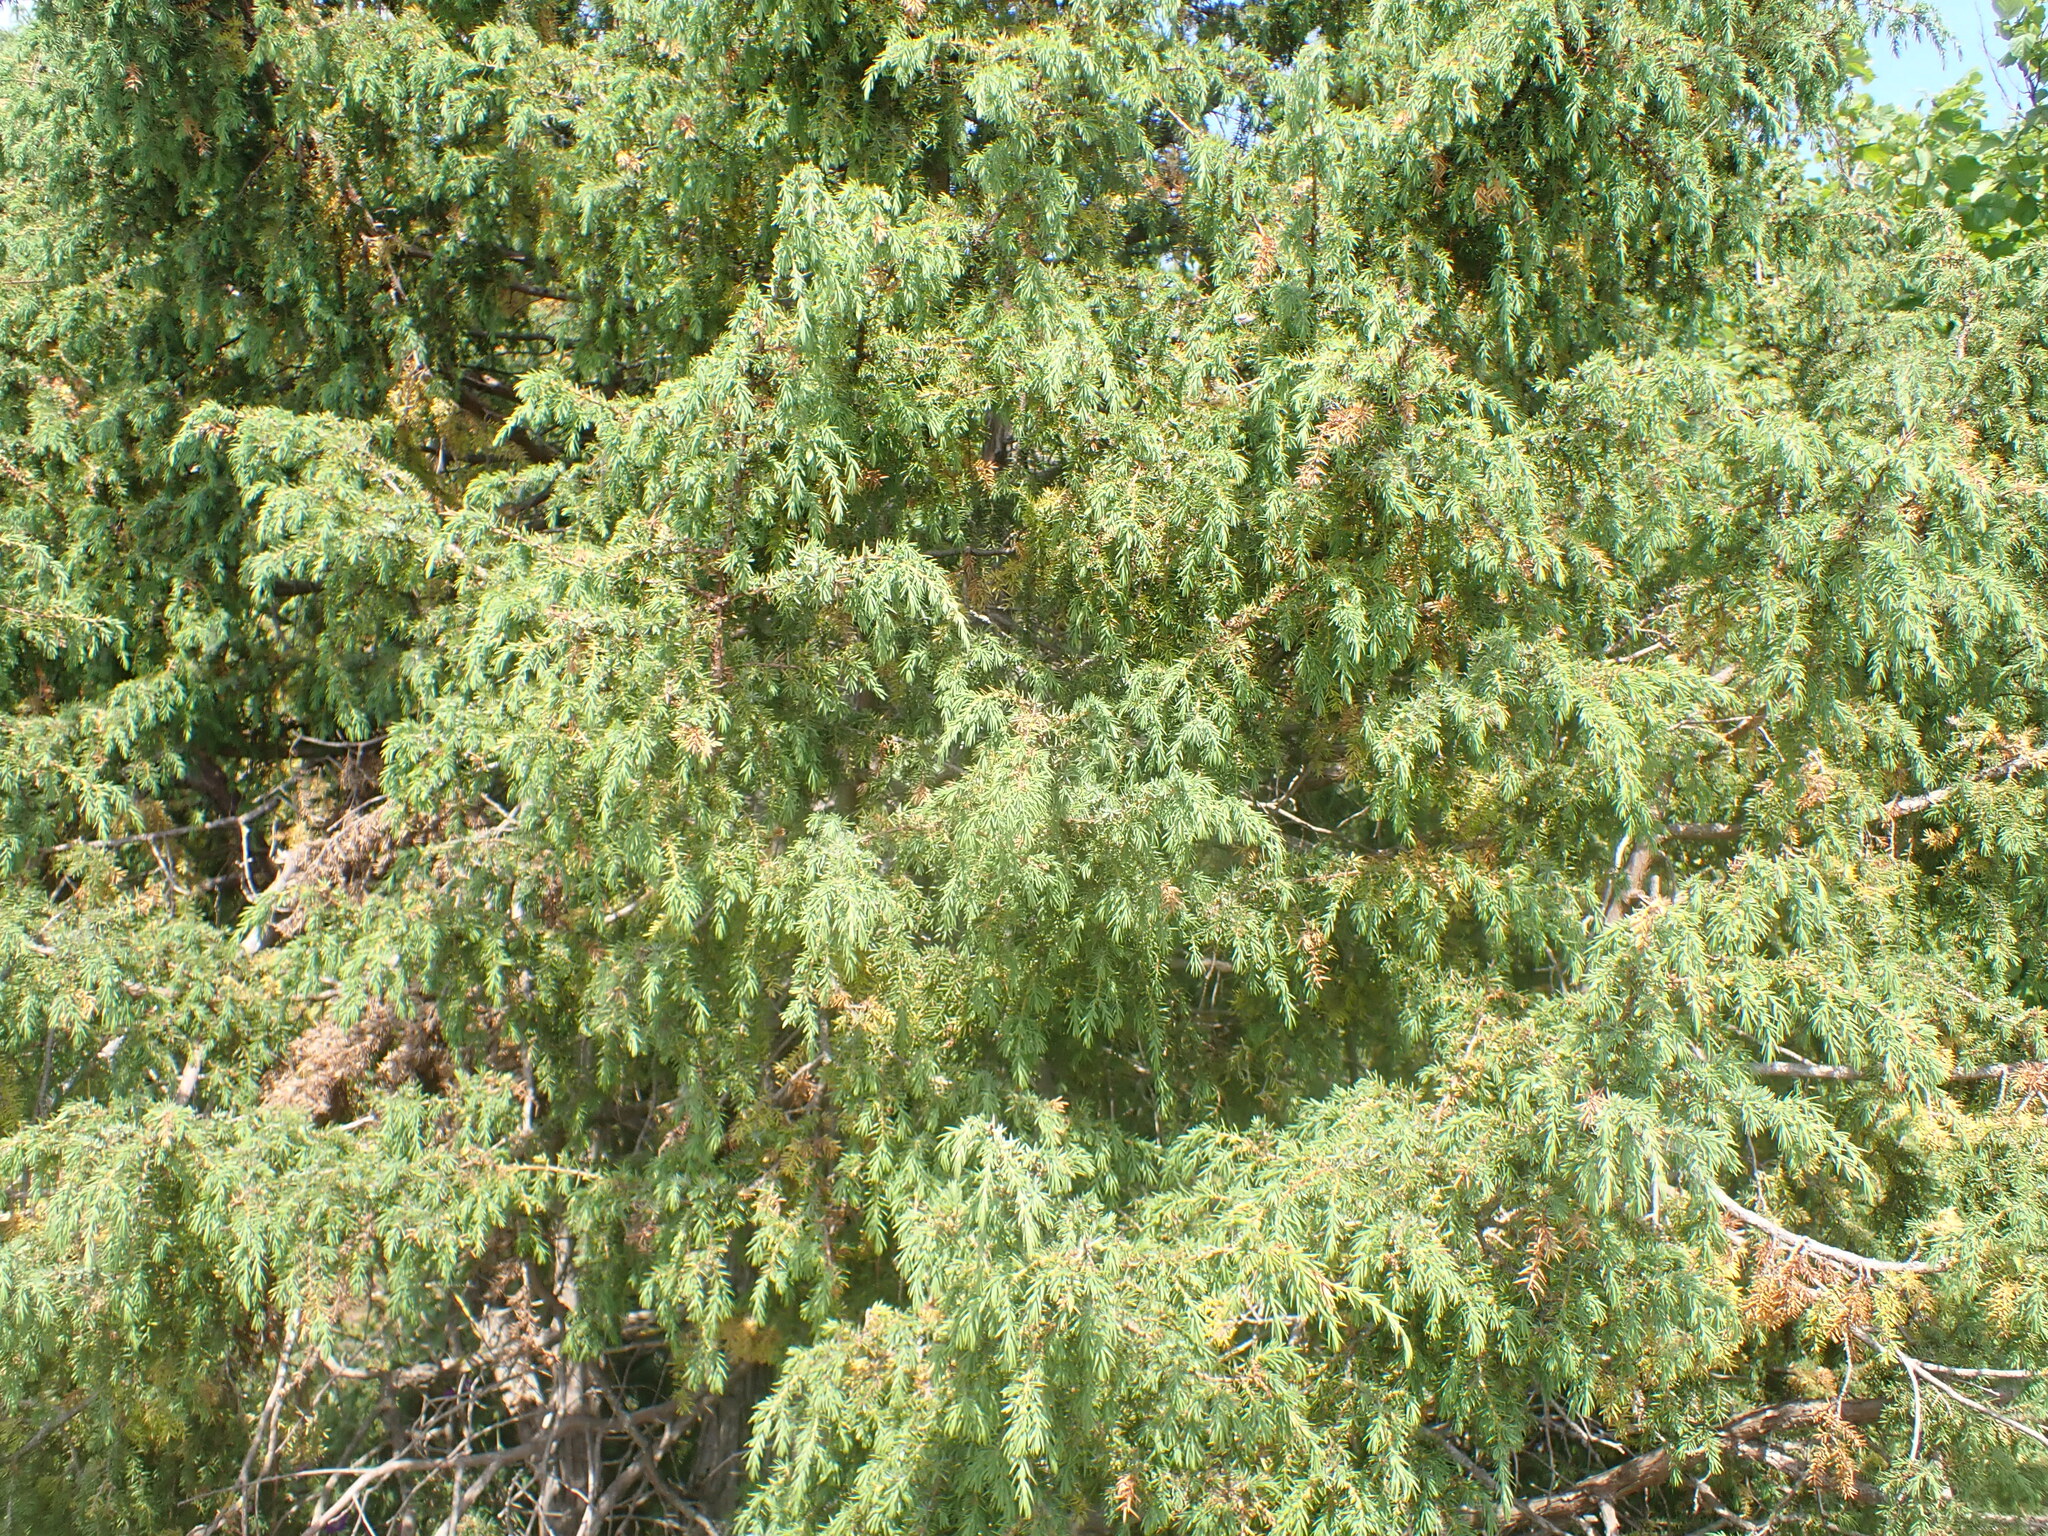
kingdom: Plantae
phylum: Tracheophyta
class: Pinopsida
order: Pinales
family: Cupressaceae
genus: Juniperus
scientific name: Juniperus communis
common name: Common juniper
